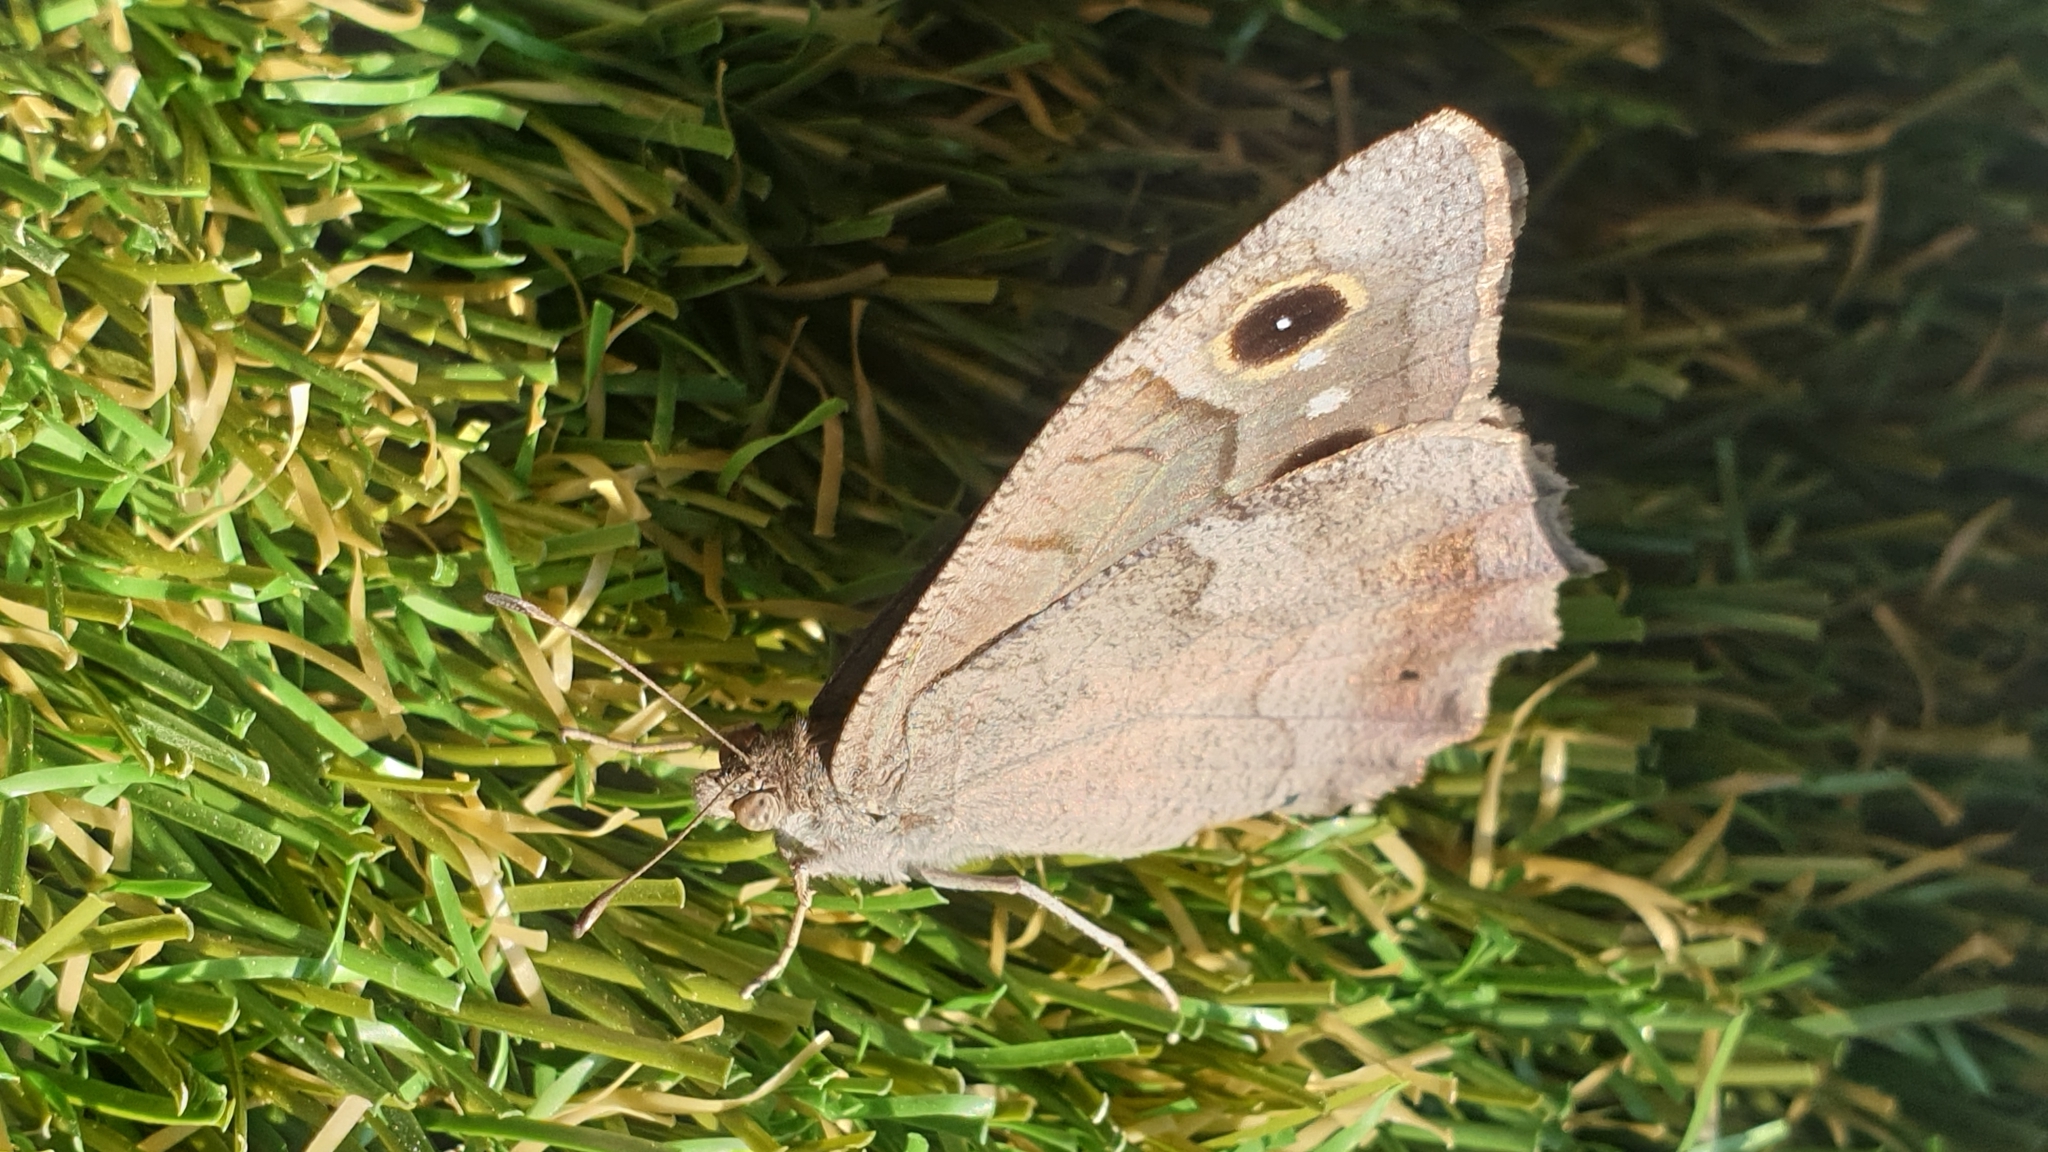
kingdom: Animalia
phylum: Arthropoda
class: Insecta
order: Lepidoptera
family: Nymphalidae
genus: Hipparchia
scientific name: Hipparchia statilinus
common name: Tree grayling
